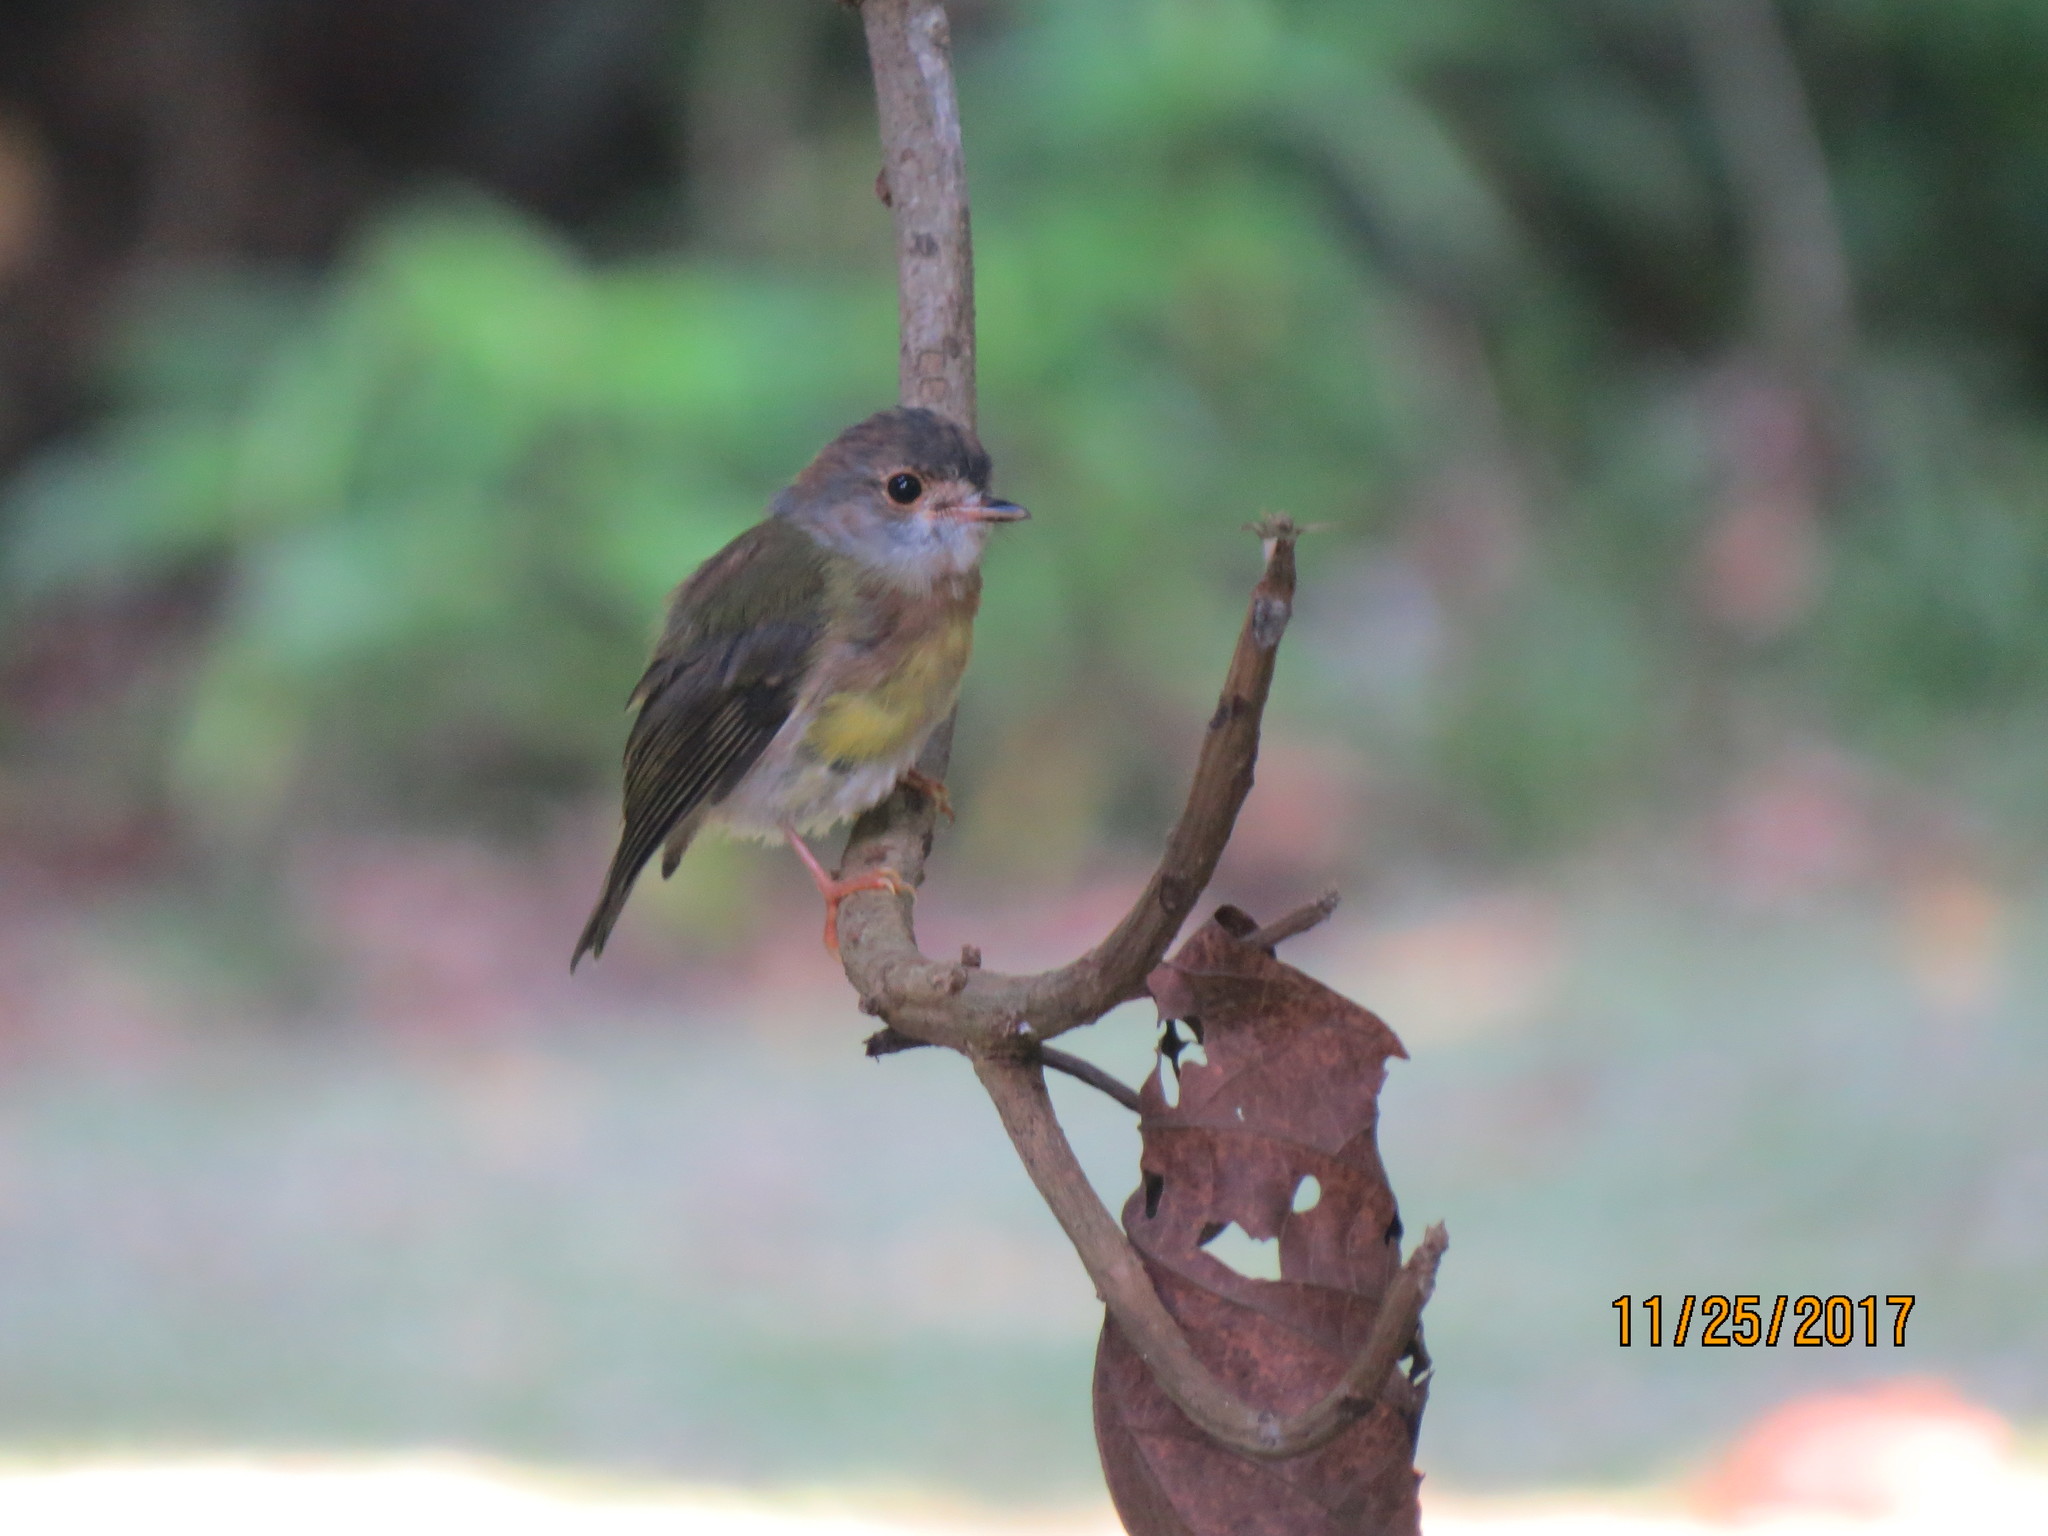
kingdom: Animalia
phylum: Chordata
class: Aves
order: Passeriformes
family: Petroicidae
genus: Eopsaltria
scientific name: Eopsaltria
